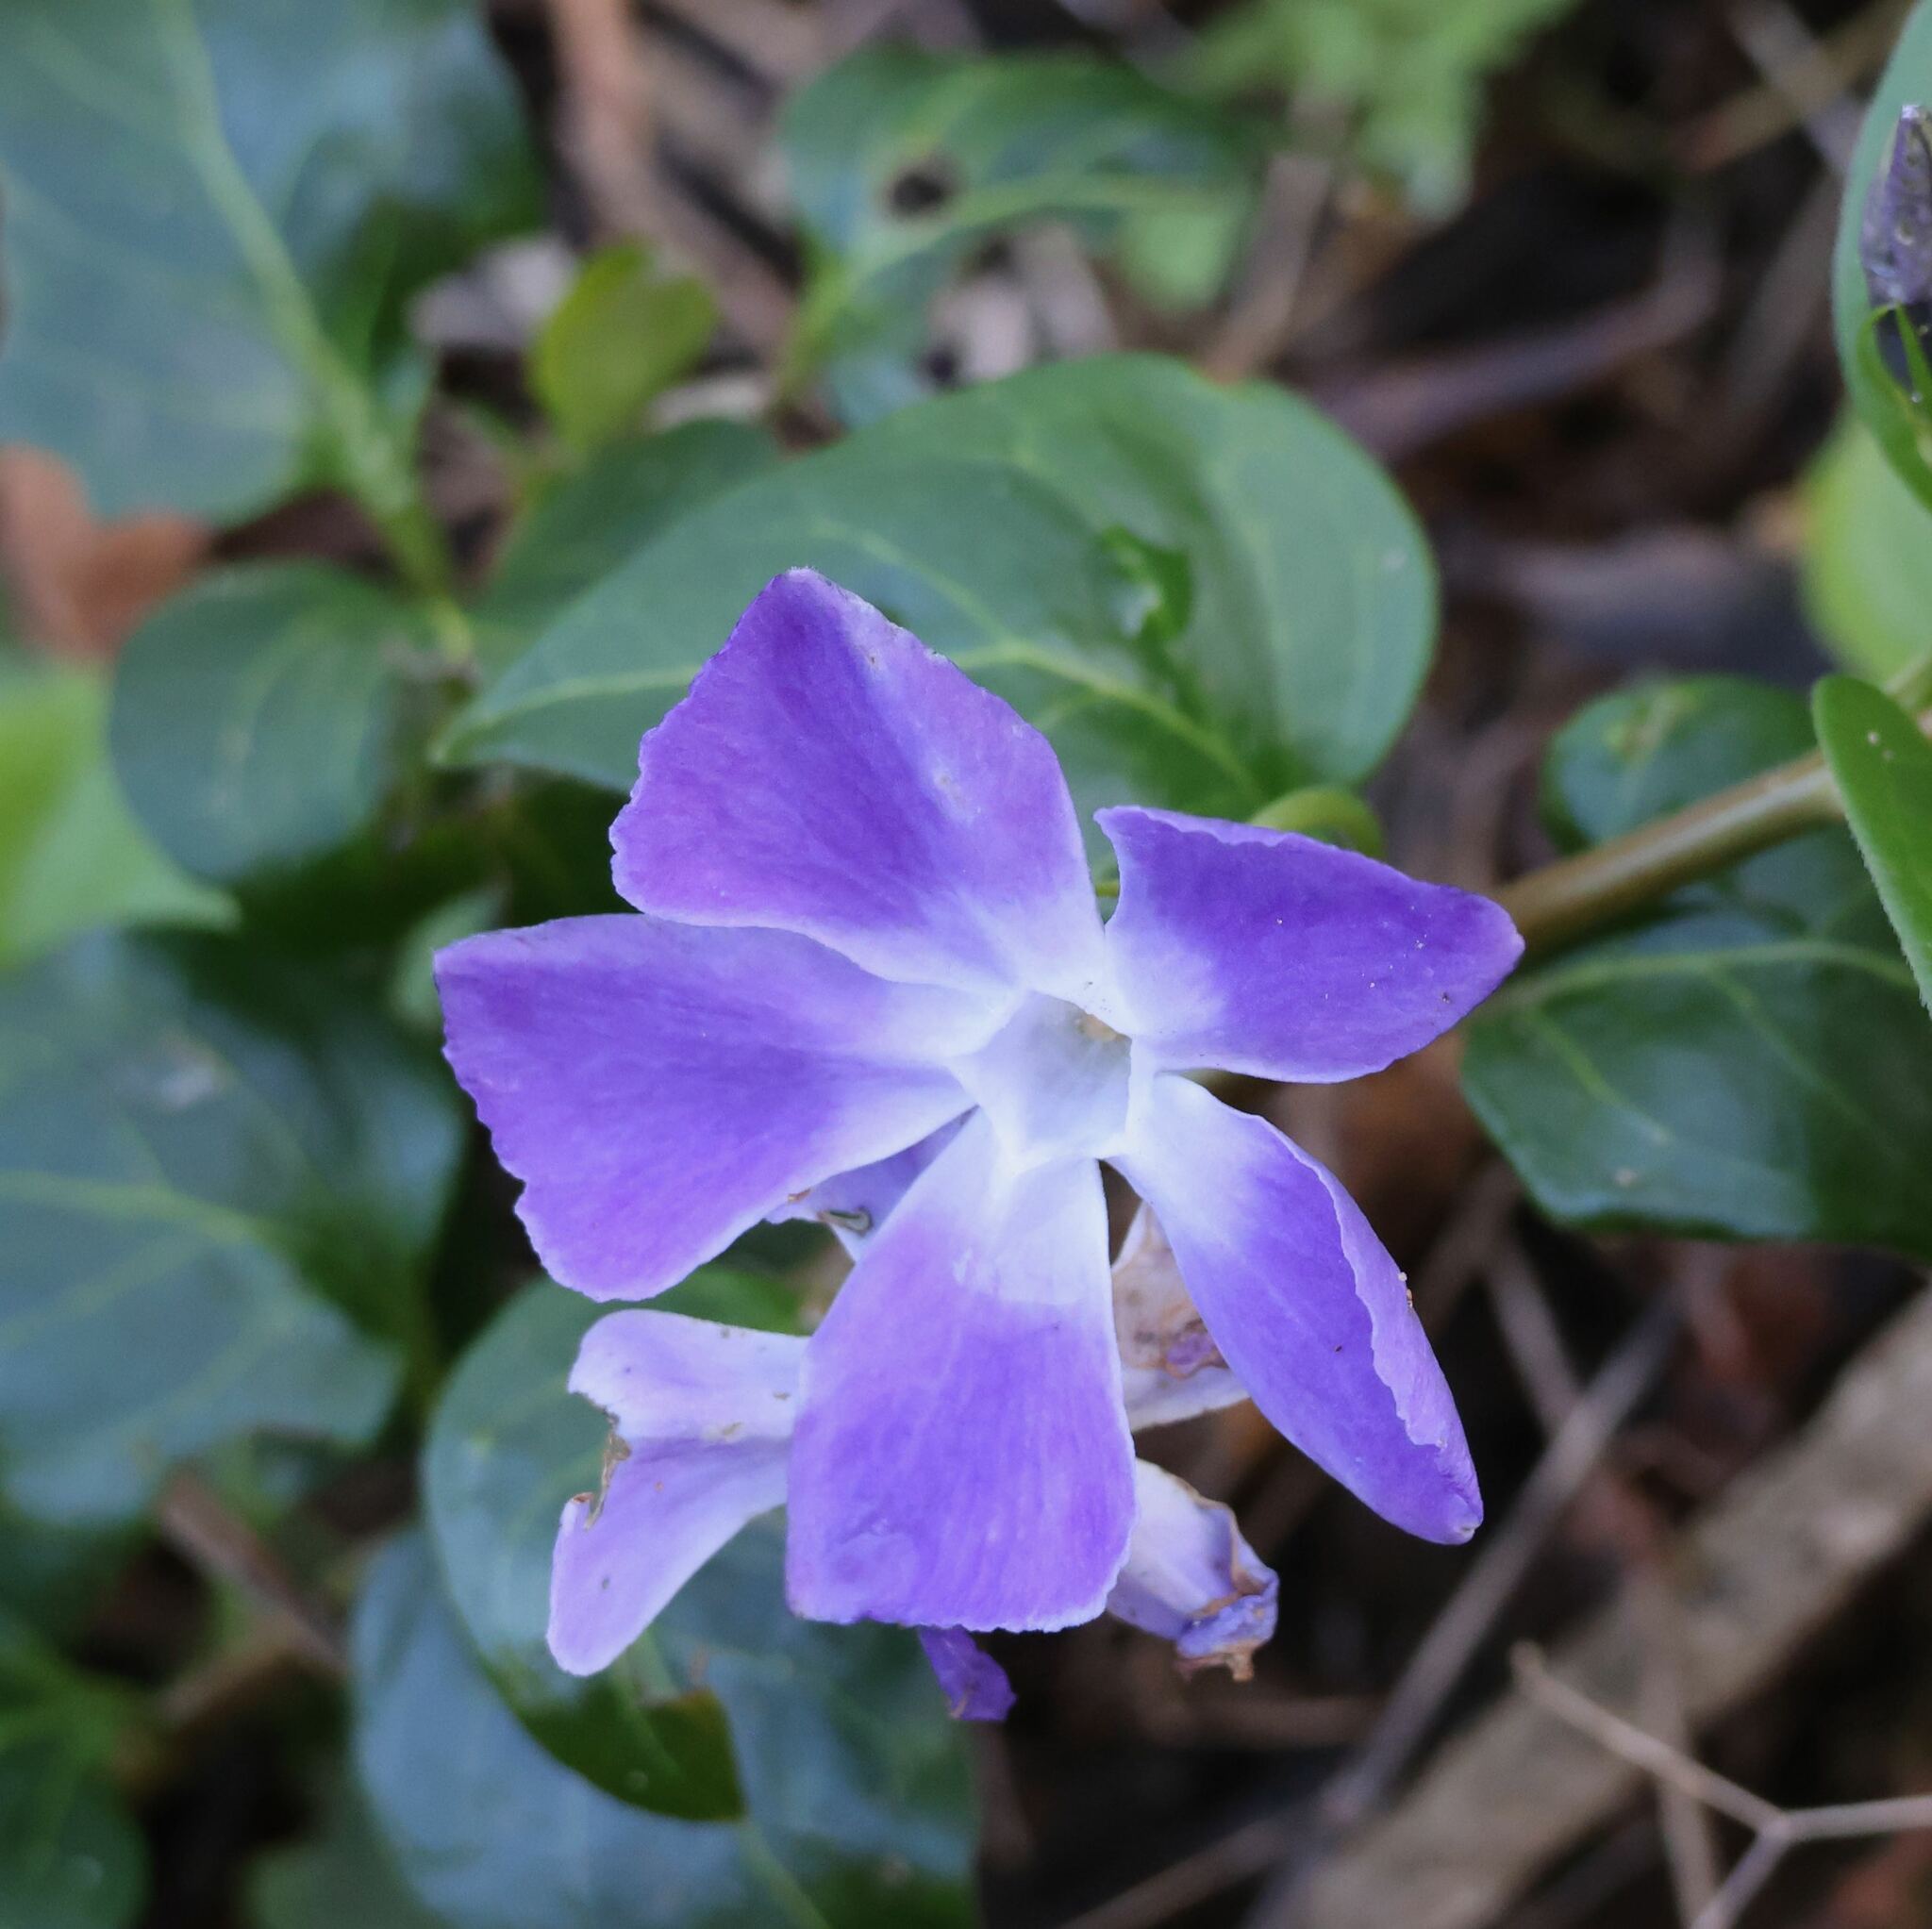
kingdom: Plantae
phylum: Tracheophyta
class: Magnoliopsida
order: Gentianales
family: Apocynaceae
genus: Vinca
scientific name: Vinca major
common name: Greater periwinkle
